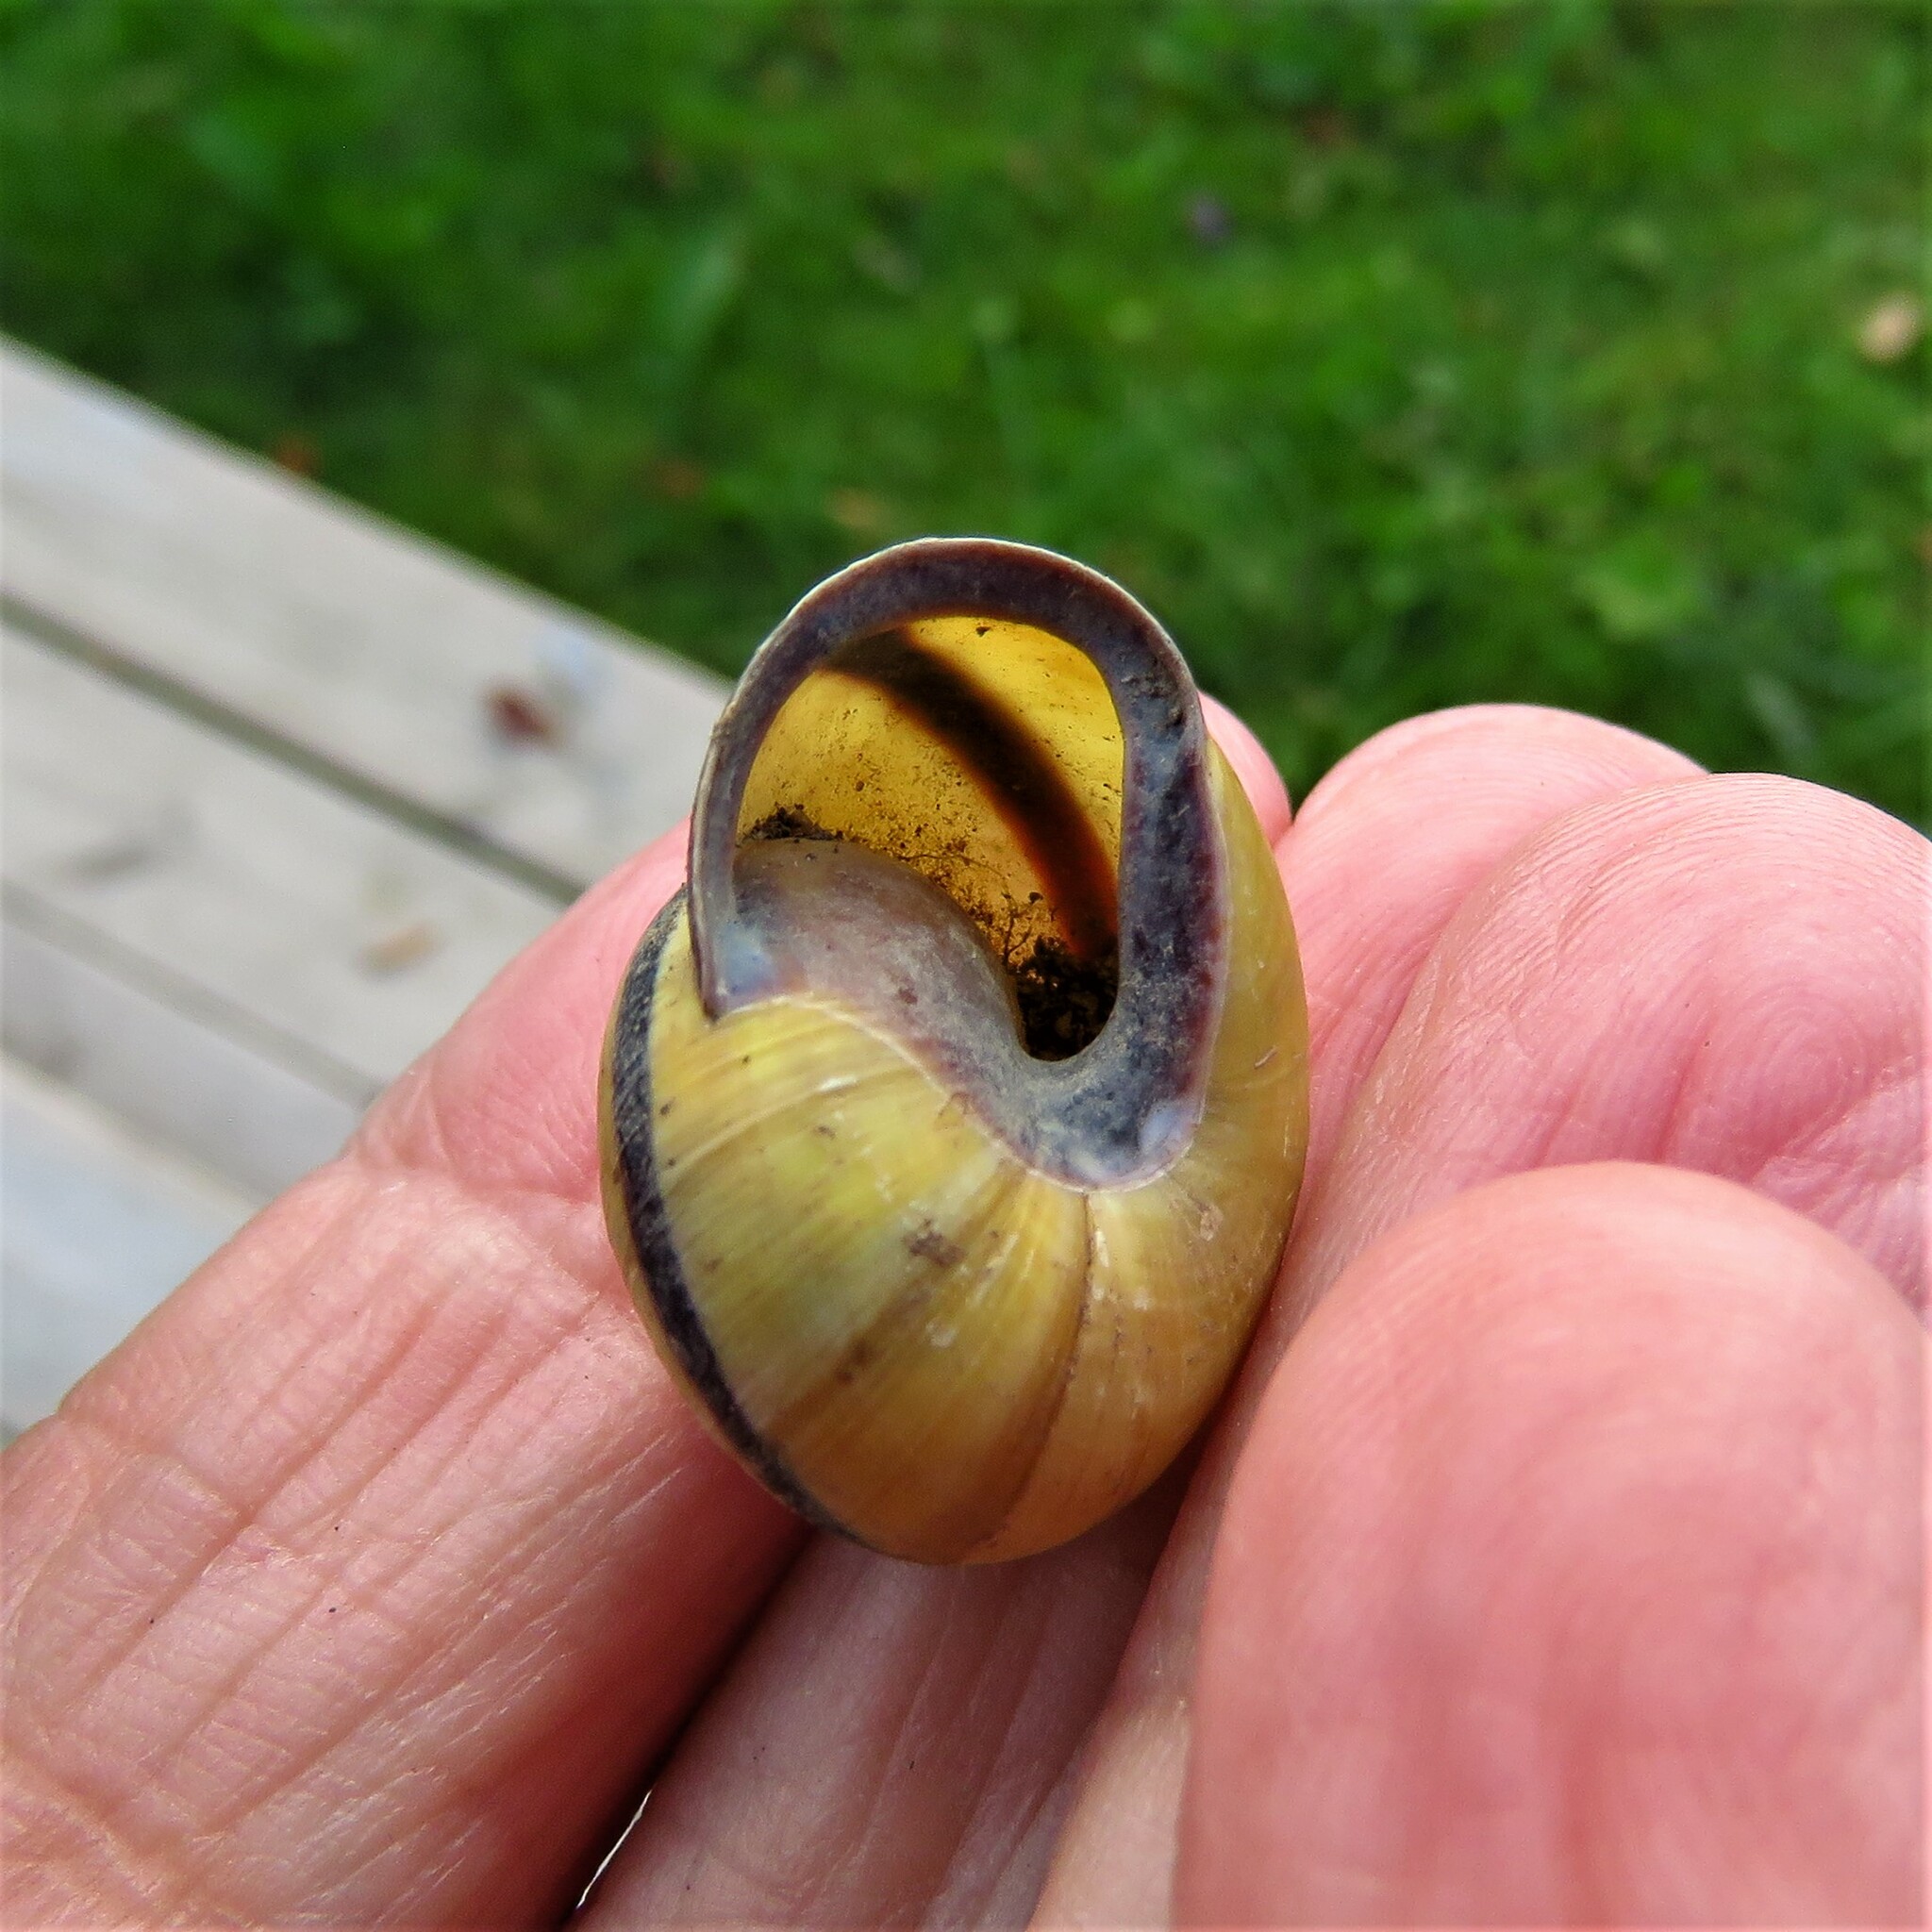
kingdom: Animalia
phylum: Mollusca
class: Gastropoda
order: Stylommatophora
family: Helicidae
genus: Cepaea
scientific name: Cepaea nemoralis
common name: Grovesnail
